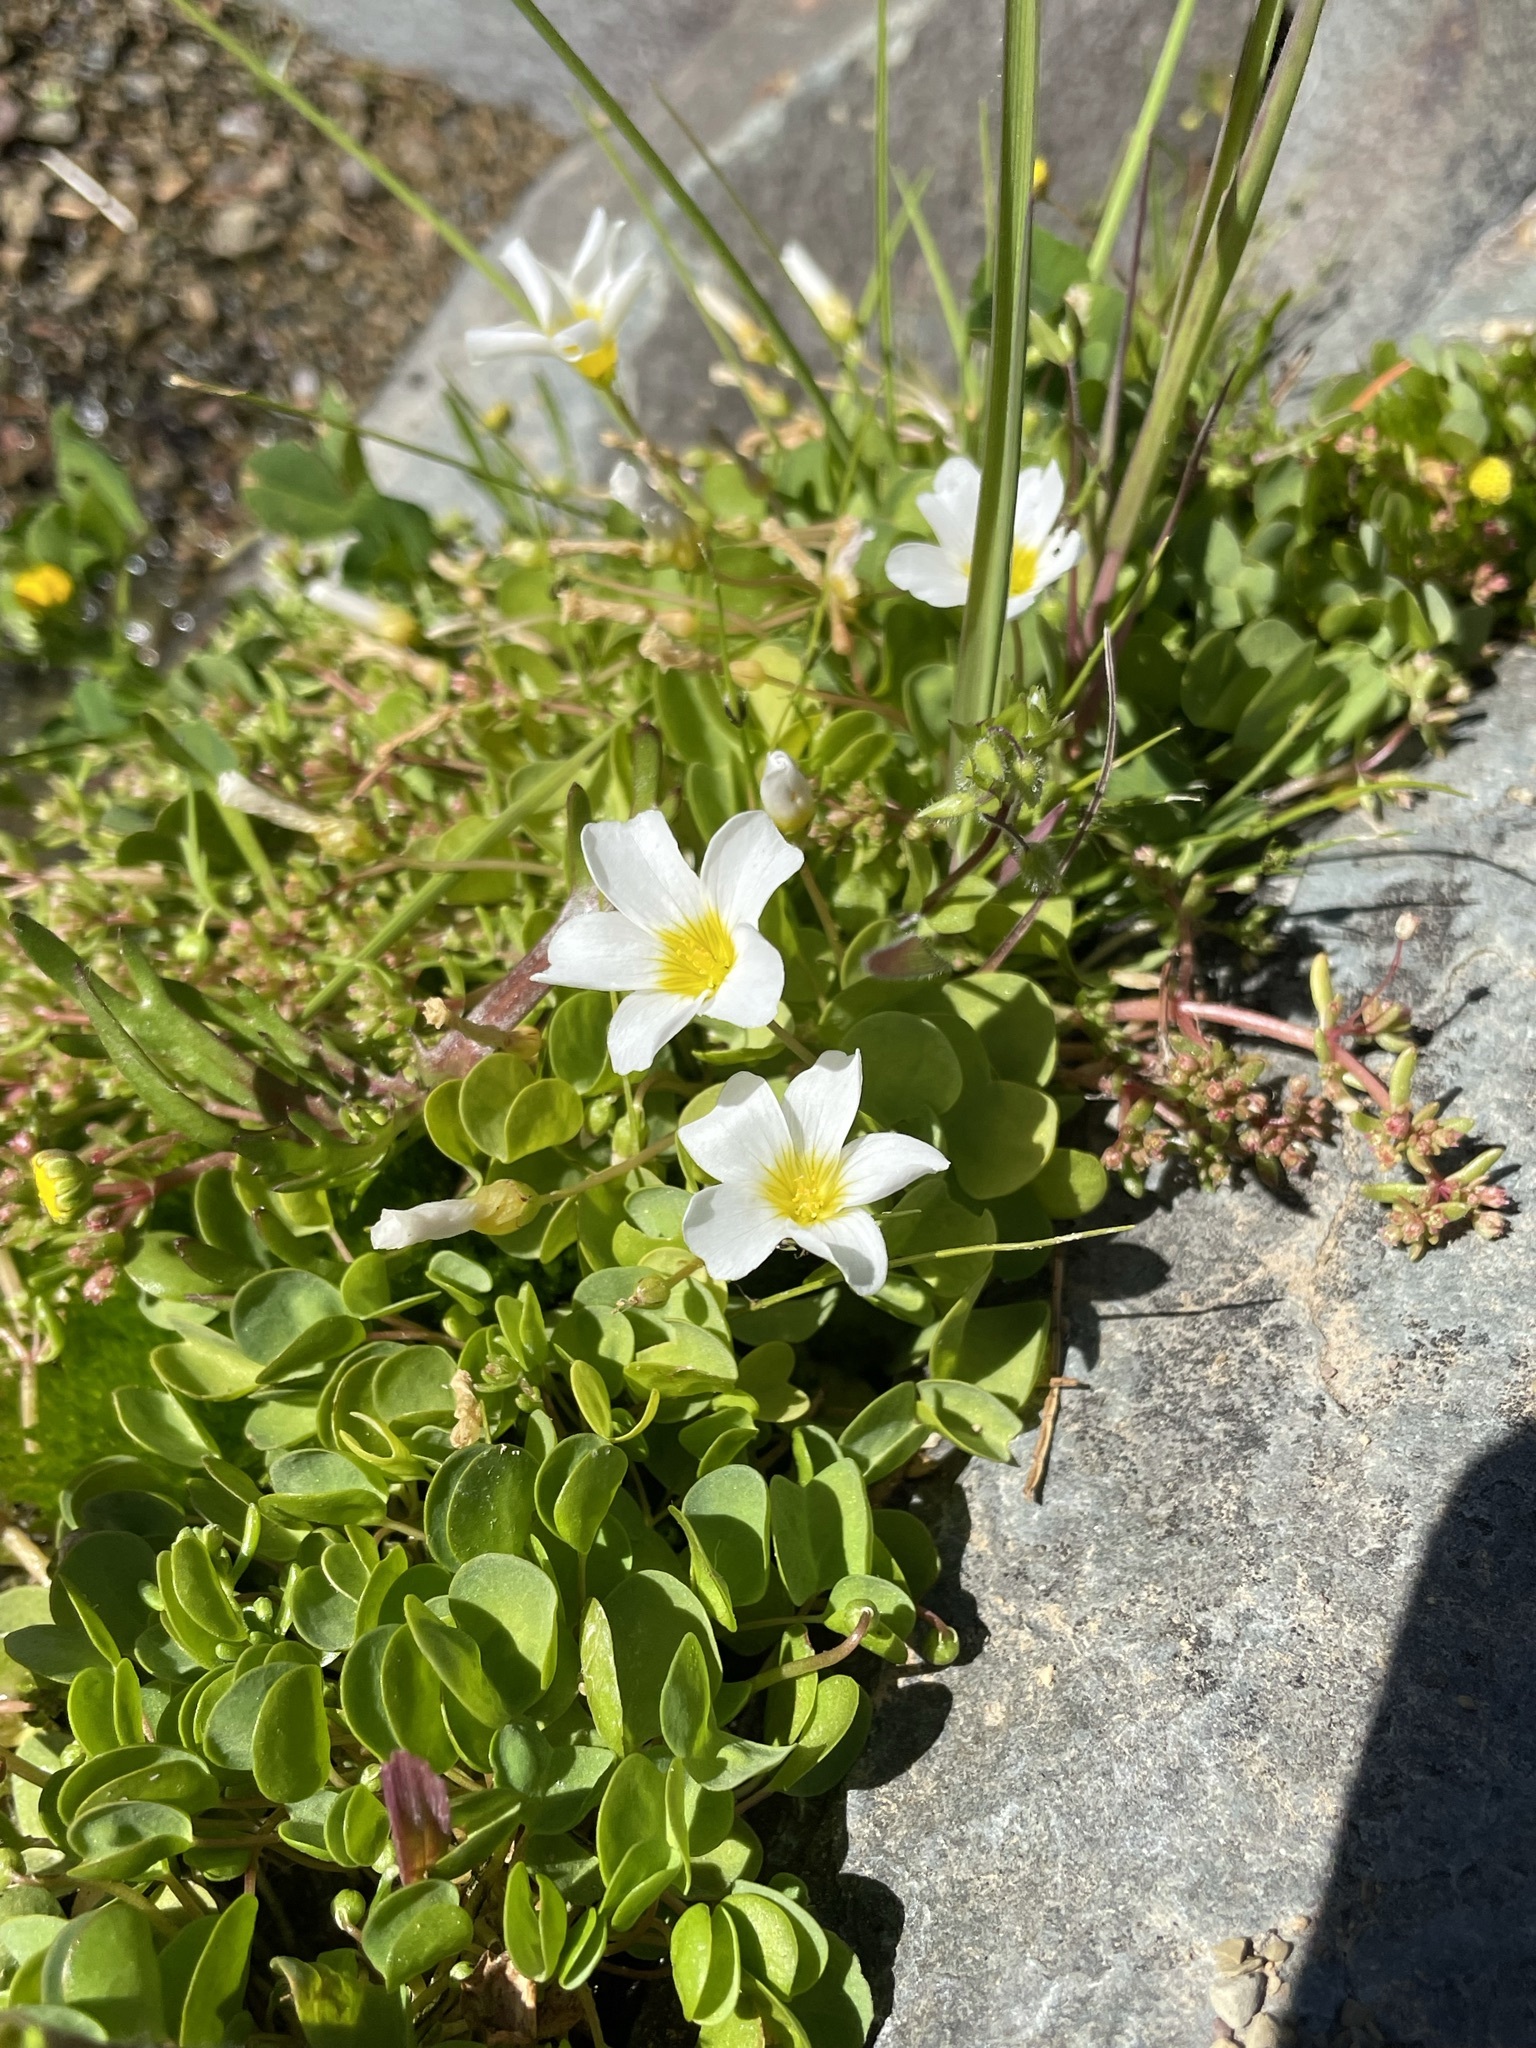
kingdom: Plantae
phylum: Tracheophyta
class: Magnoliopsida
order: Oxalidales
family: Oxalidaceae
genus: Oxalis
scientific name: Oxalis dregei
